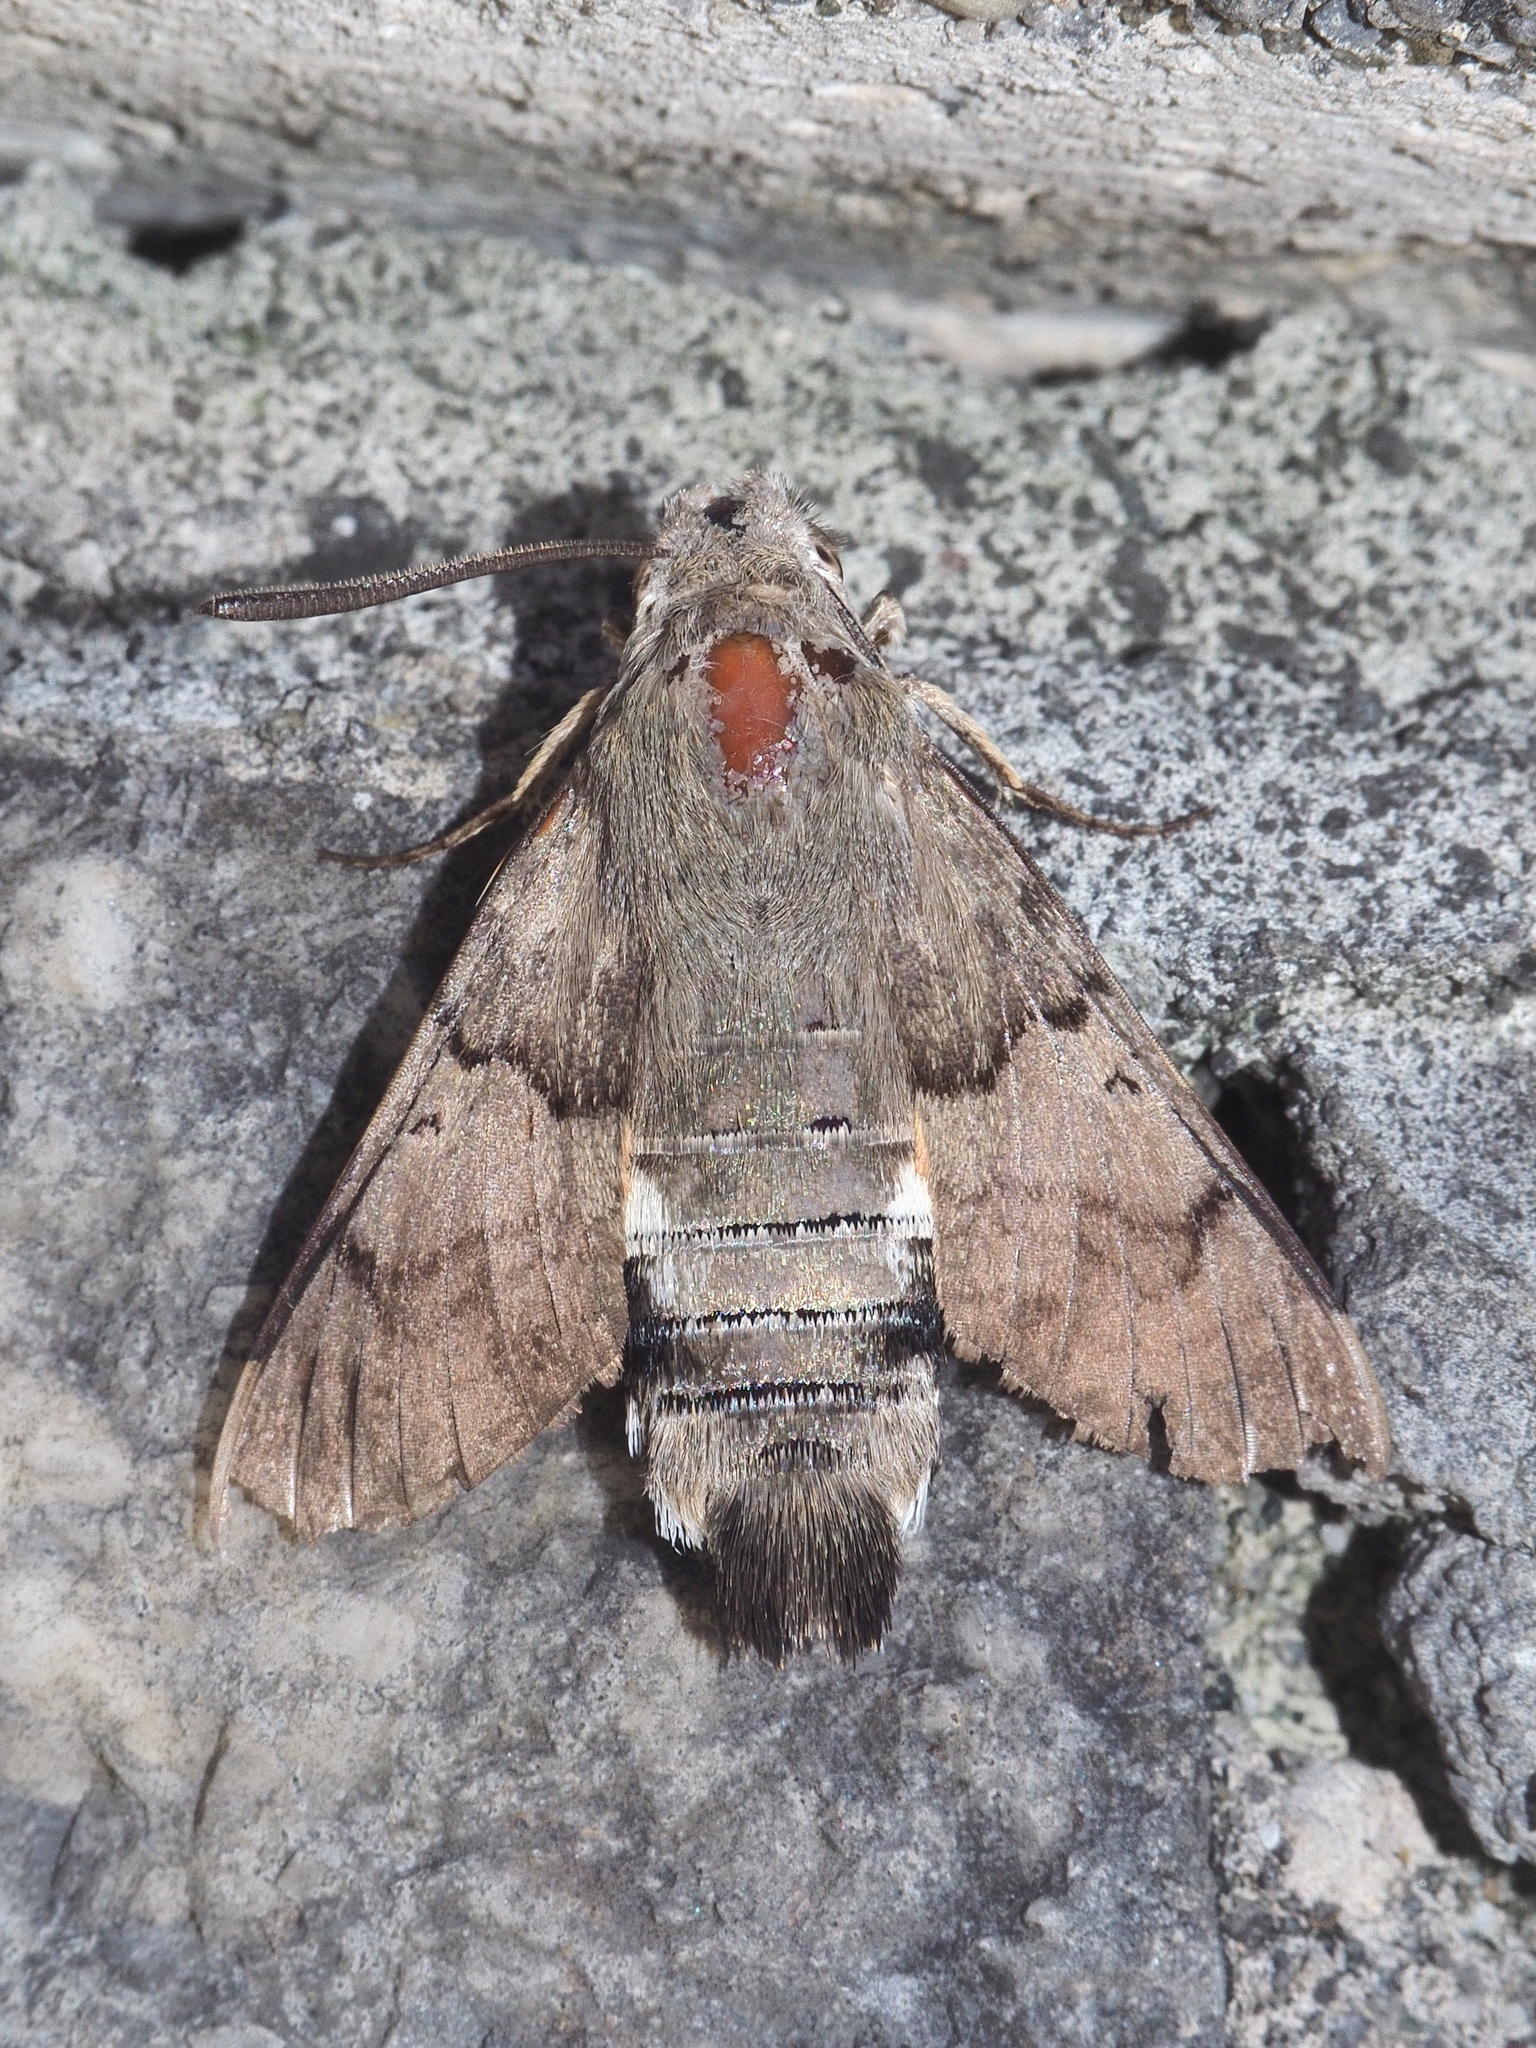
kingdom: Animalia
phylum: Arthropoda
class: Insecta
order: Lepidoptera
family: Sphingidae
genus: Macroglossum
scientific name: Macroglossum stellatarum
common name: Humming-bird hawk-moth
